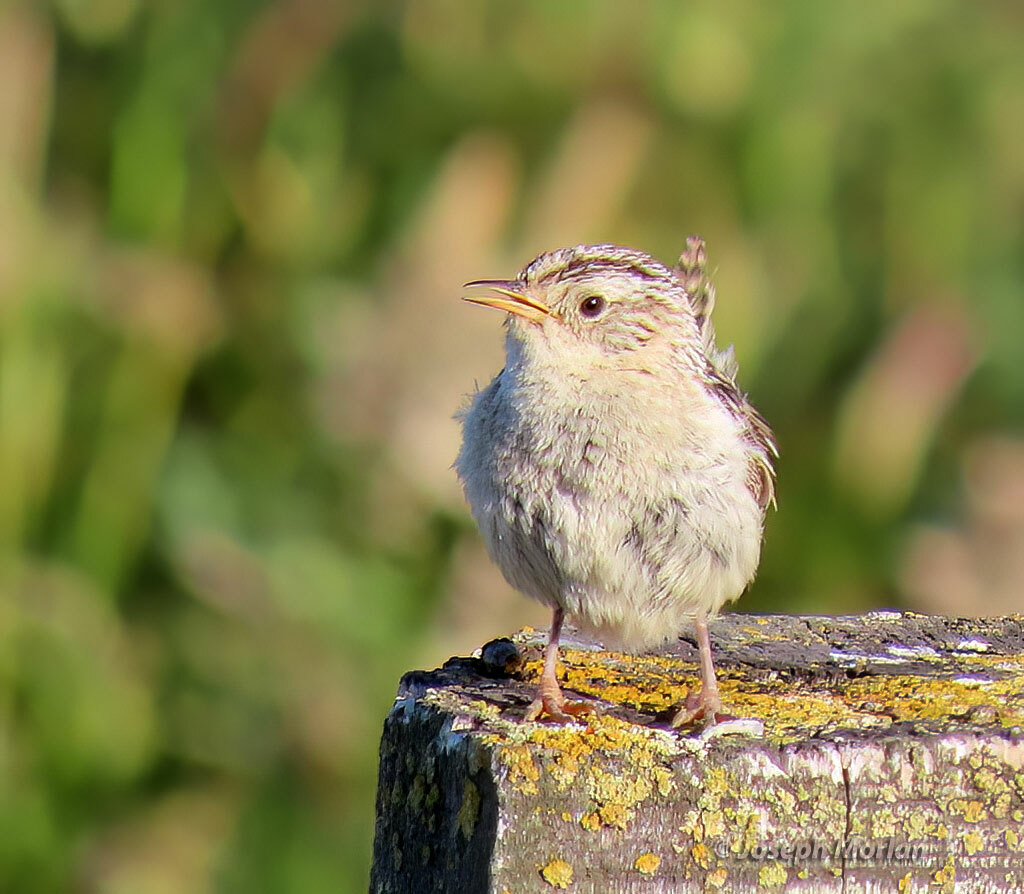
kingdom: Animalia
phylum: Chordata
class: Aves
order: Passeriformes
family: Troglodytidae
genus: Cistothorus
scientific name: Cistothorus platensis
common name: Sedge wren
